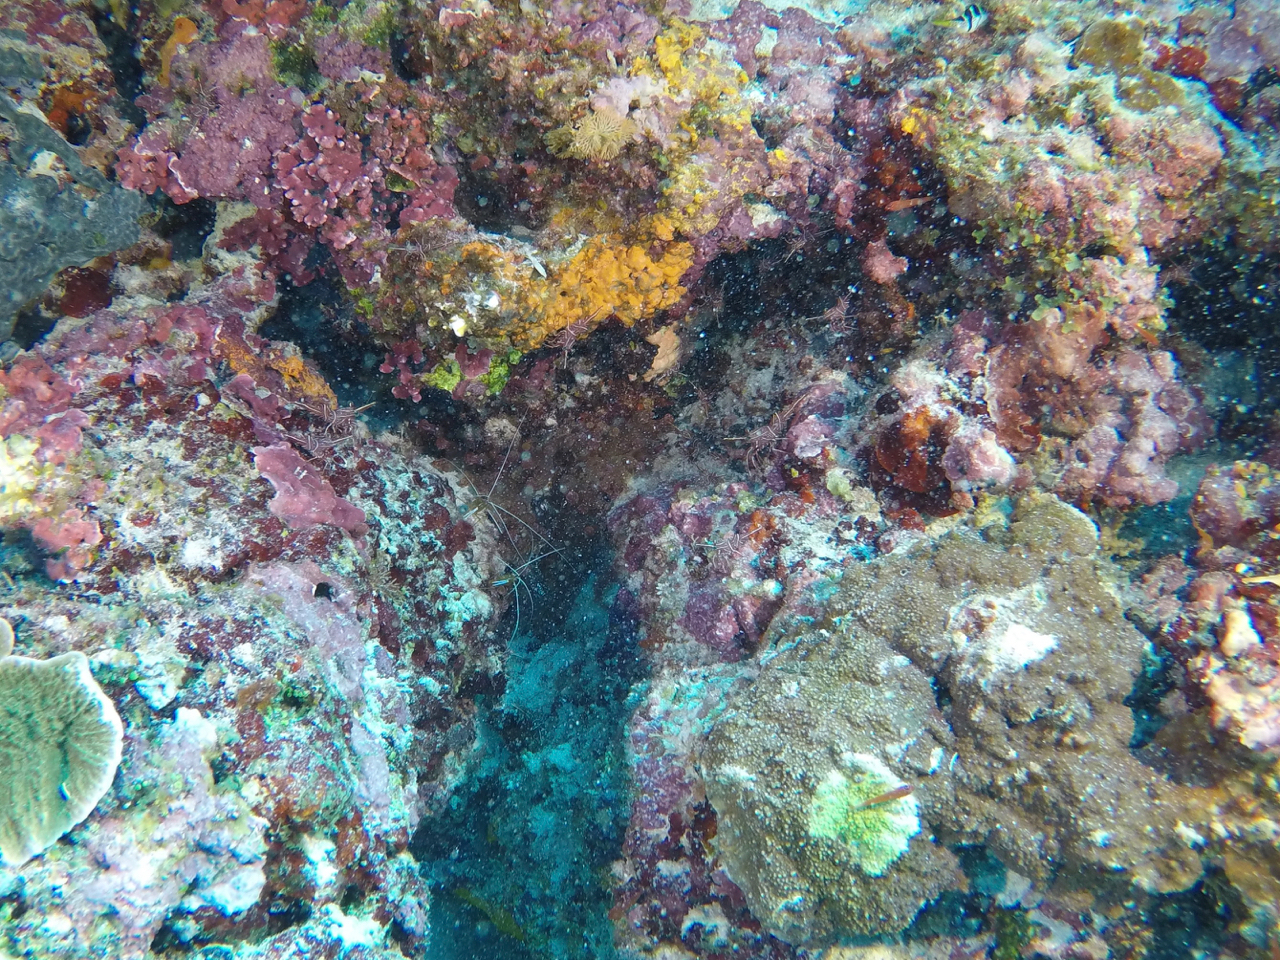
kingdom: Animalia
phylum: Arthropoda
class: Malacostraca
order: Decapoda
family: Lysmatidae
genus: Lysmata
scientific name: Lysmata amboinensis
